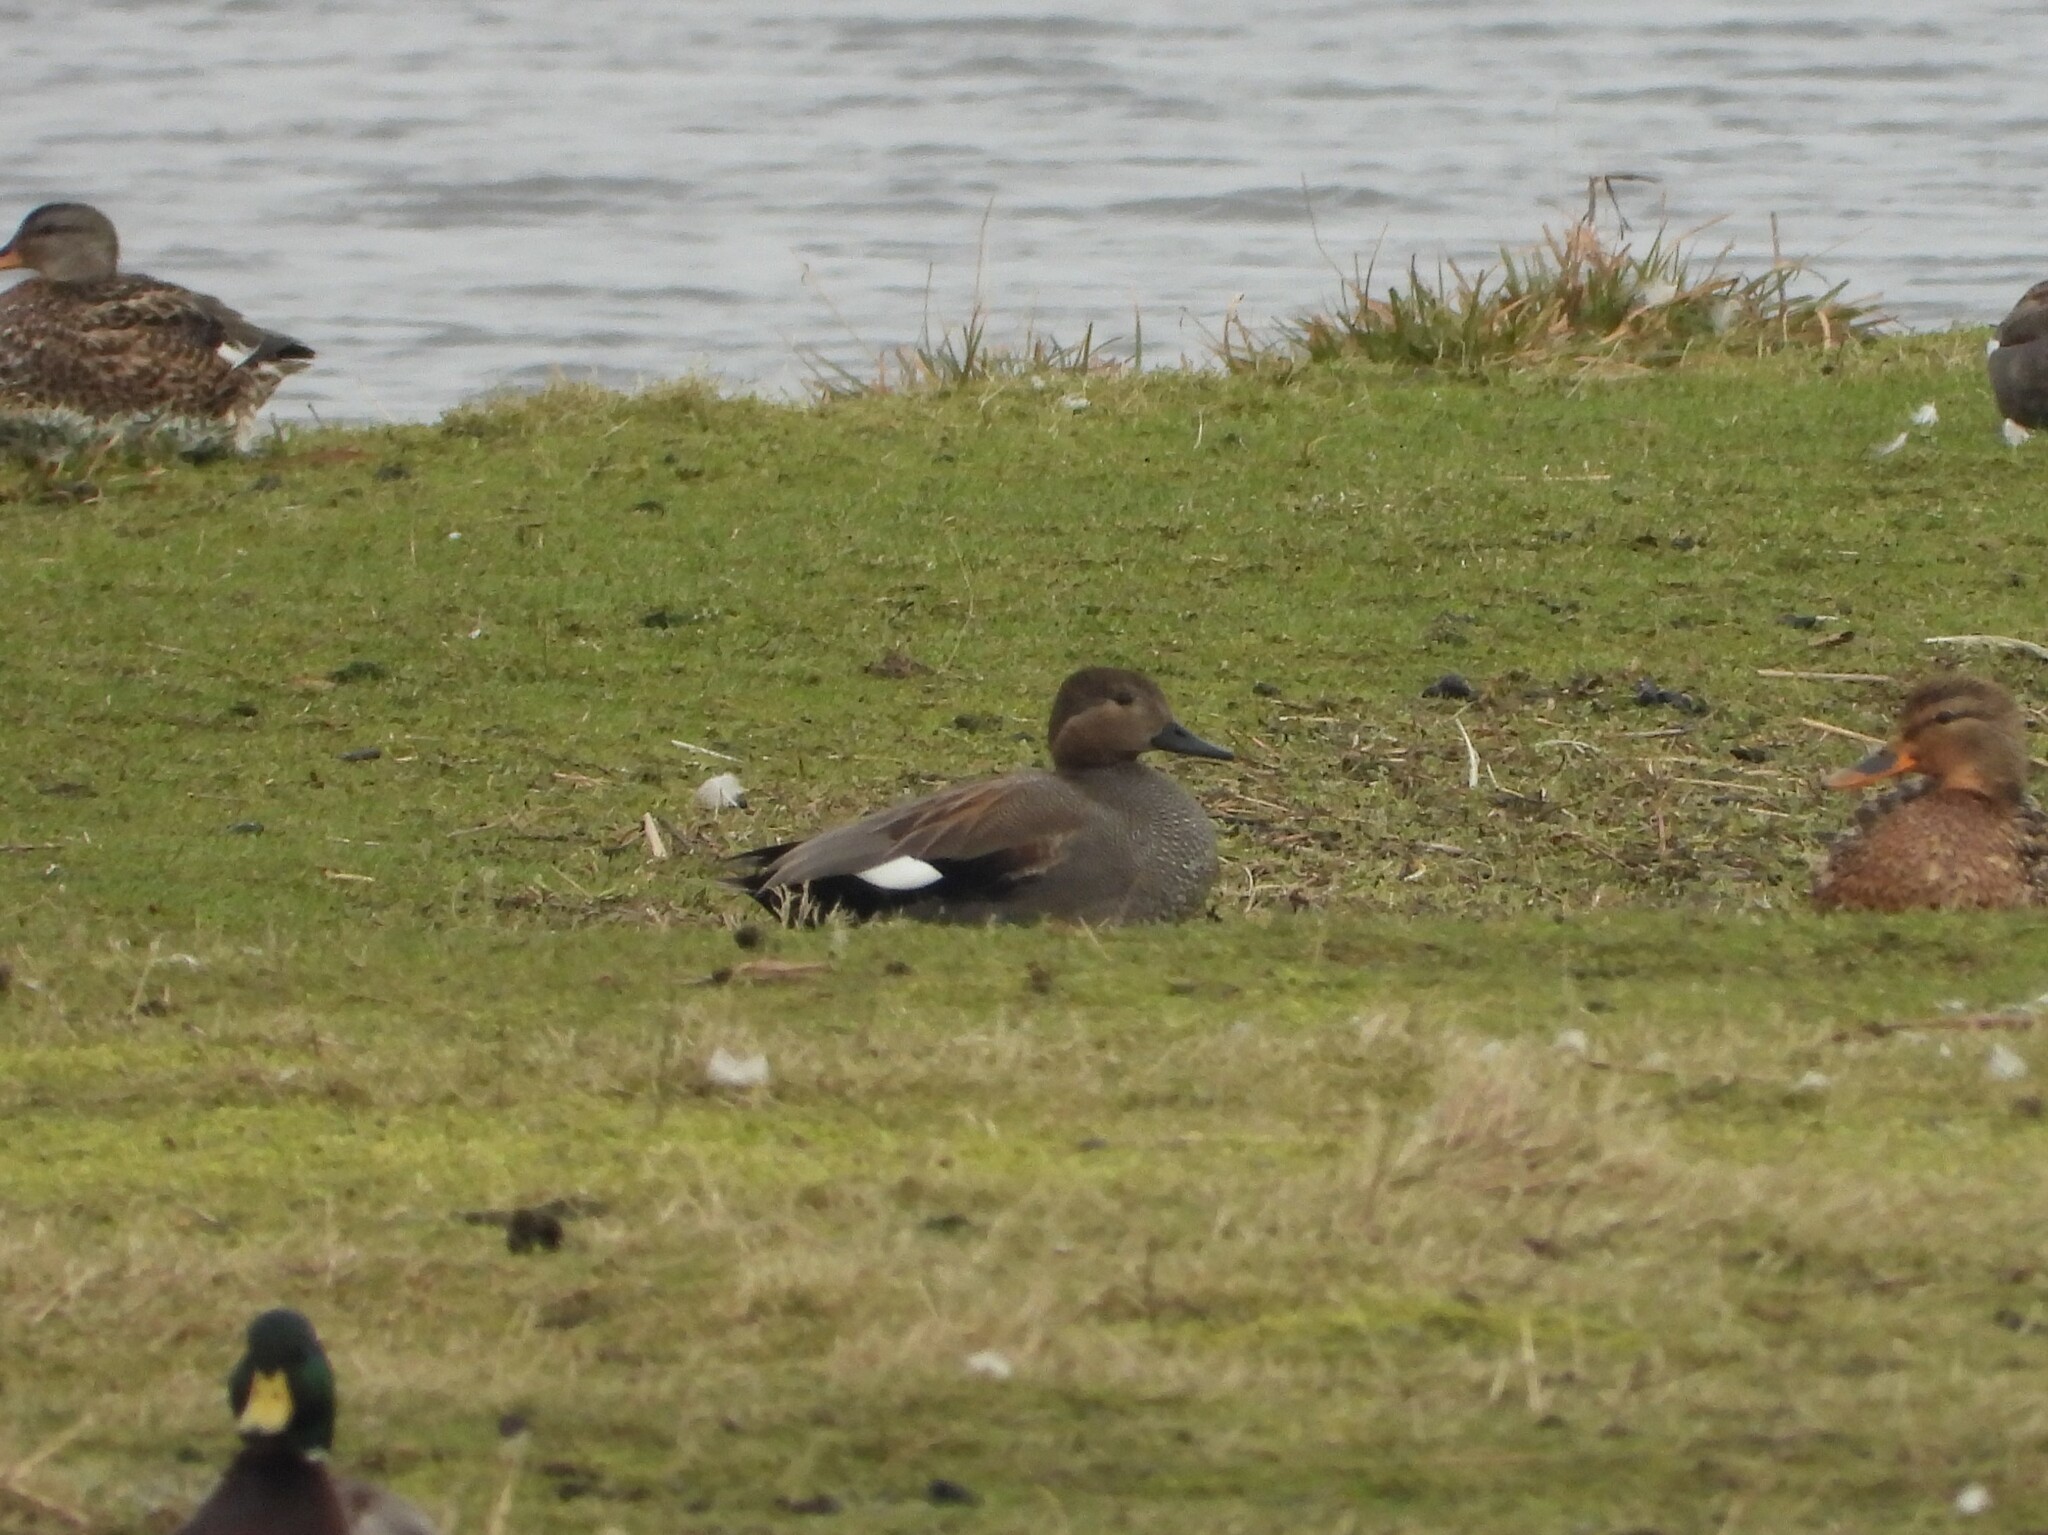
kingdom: Animalia
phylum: Chordata
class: Aves
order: Anseriformes
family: Anatidae
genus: Mareca
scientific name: Mareca strepera
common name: Gadwall
